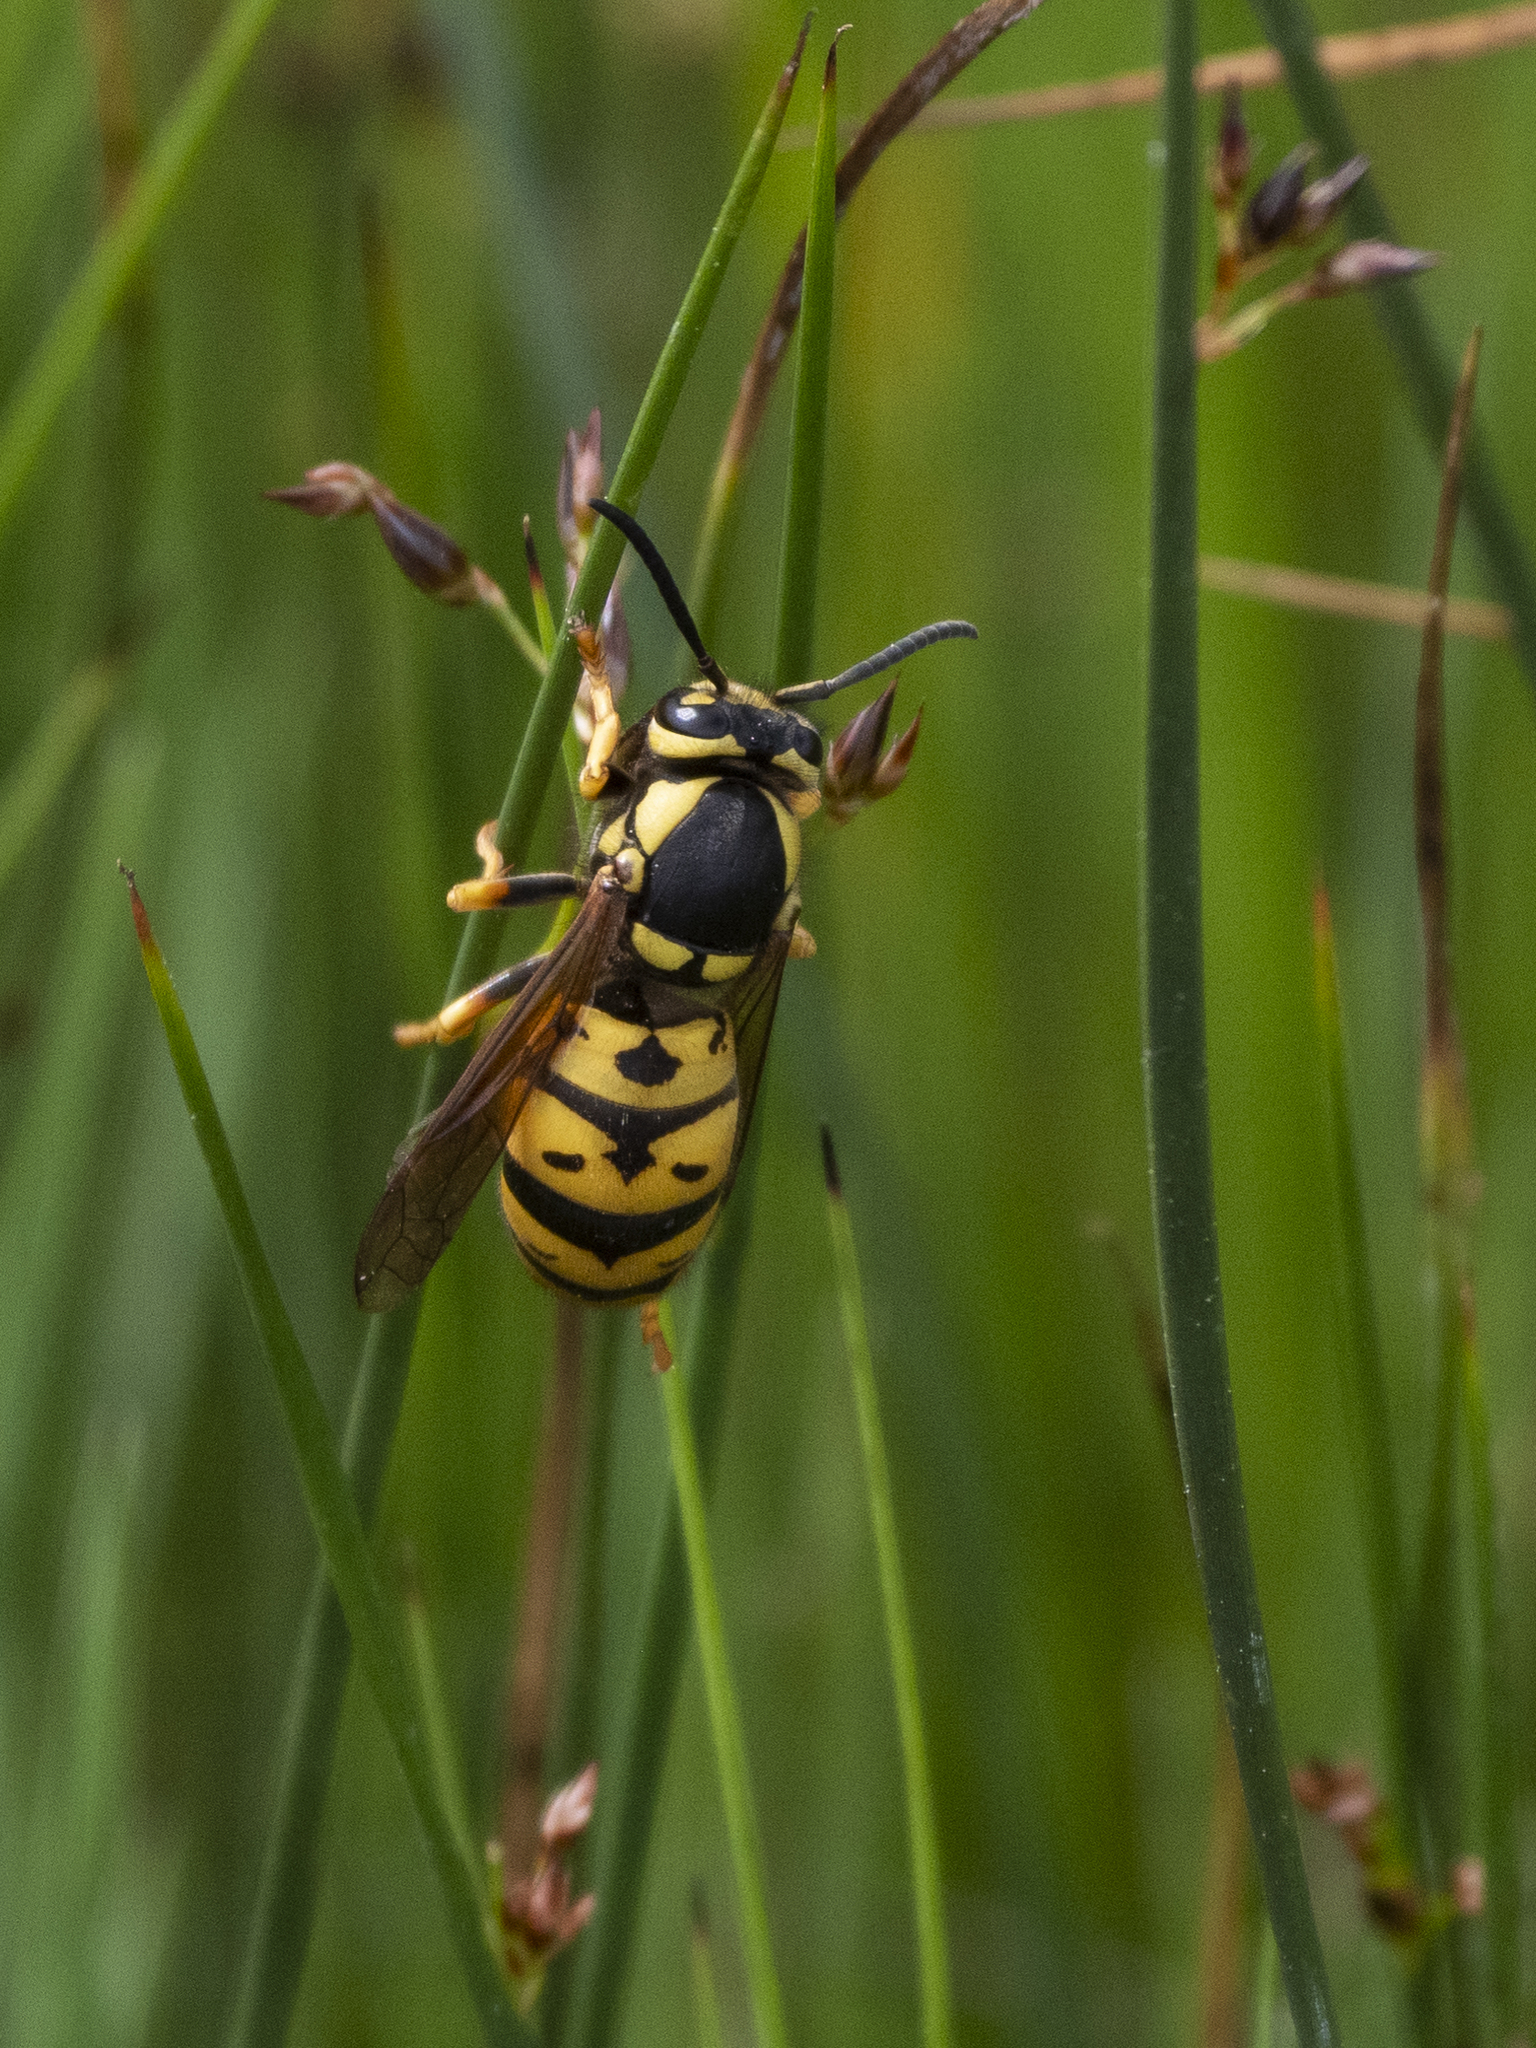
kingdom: Animalia
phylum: Arthropoda
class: Insecta
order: Hymenoptera
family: Vespidae
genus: Vespula
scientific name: Vespula atropilosa
